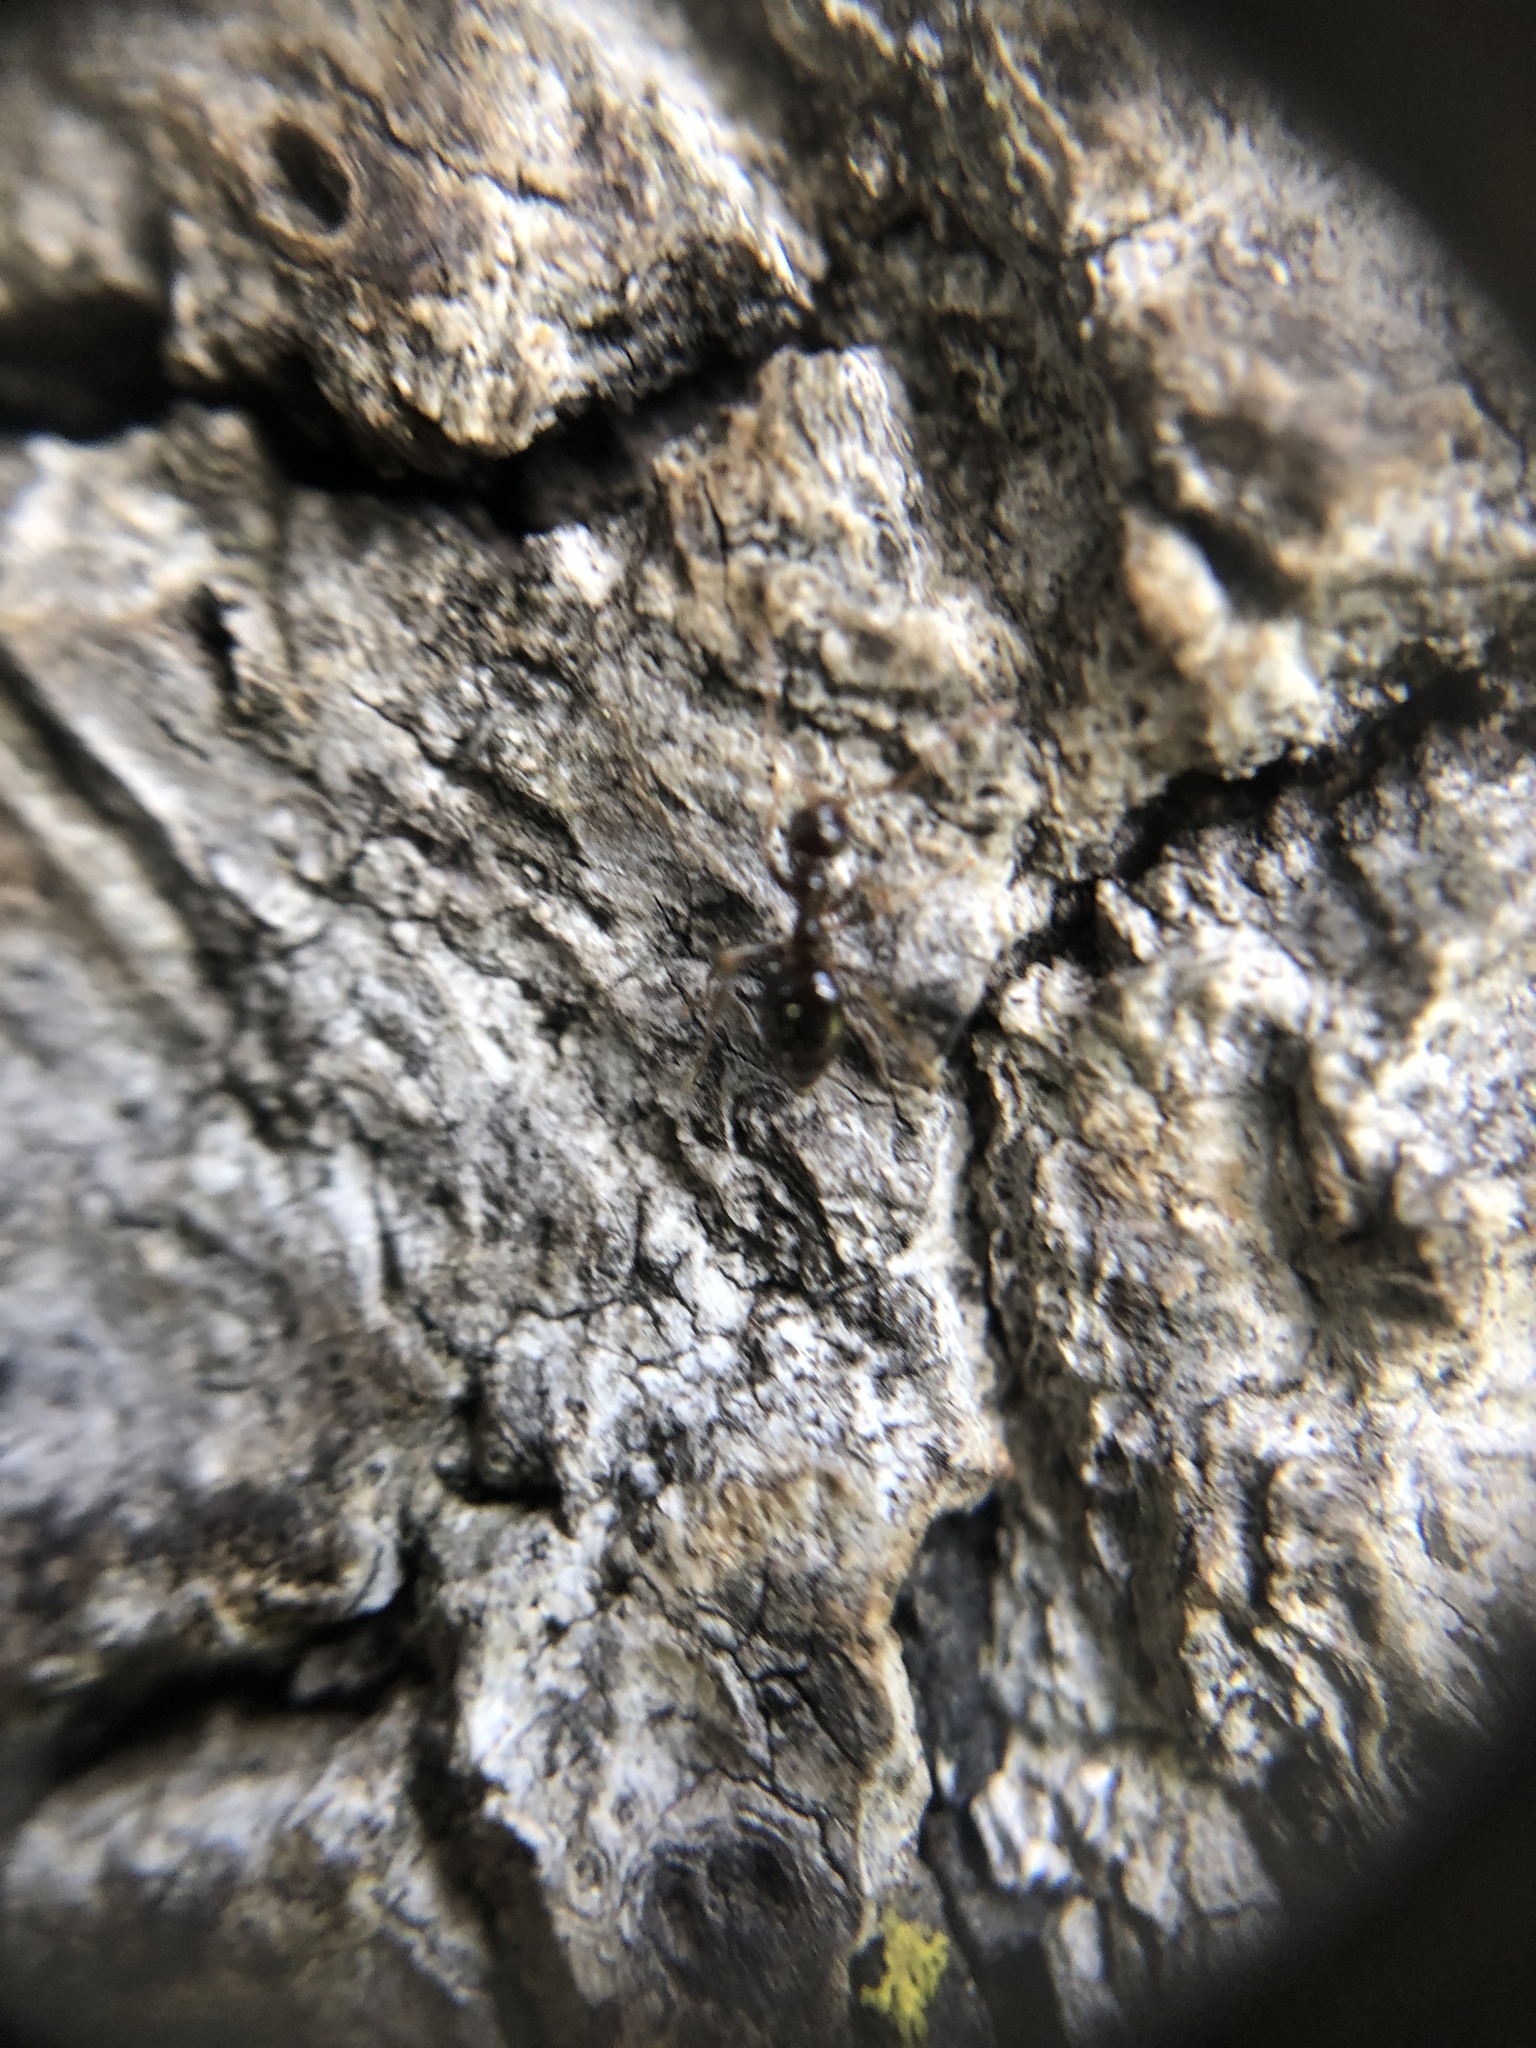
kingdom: Animalia
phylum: Arthropoda
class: Insecta
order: Hymenoptera
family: Formicidae
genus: Prenolepis
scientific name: Prenolepis imparis
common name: Small honey ant
